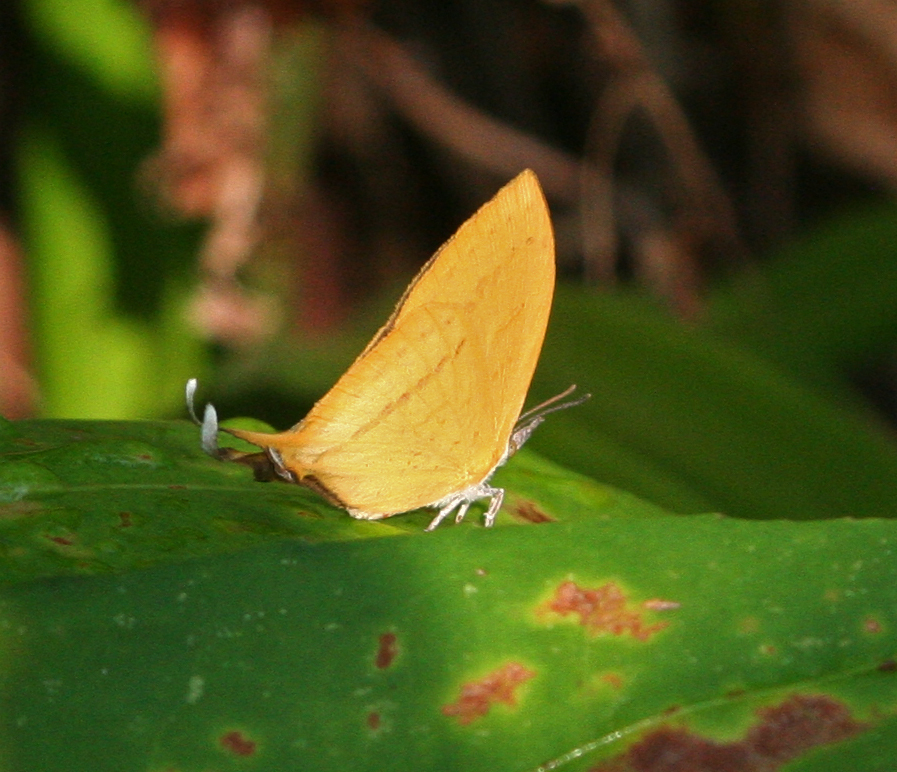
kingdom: Animalia
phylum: Arthropoda
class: Insecta
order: Lepidoptera
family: Lycaenidae
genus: Loxura
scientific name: Loxura atymnus
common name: Common yamfly
